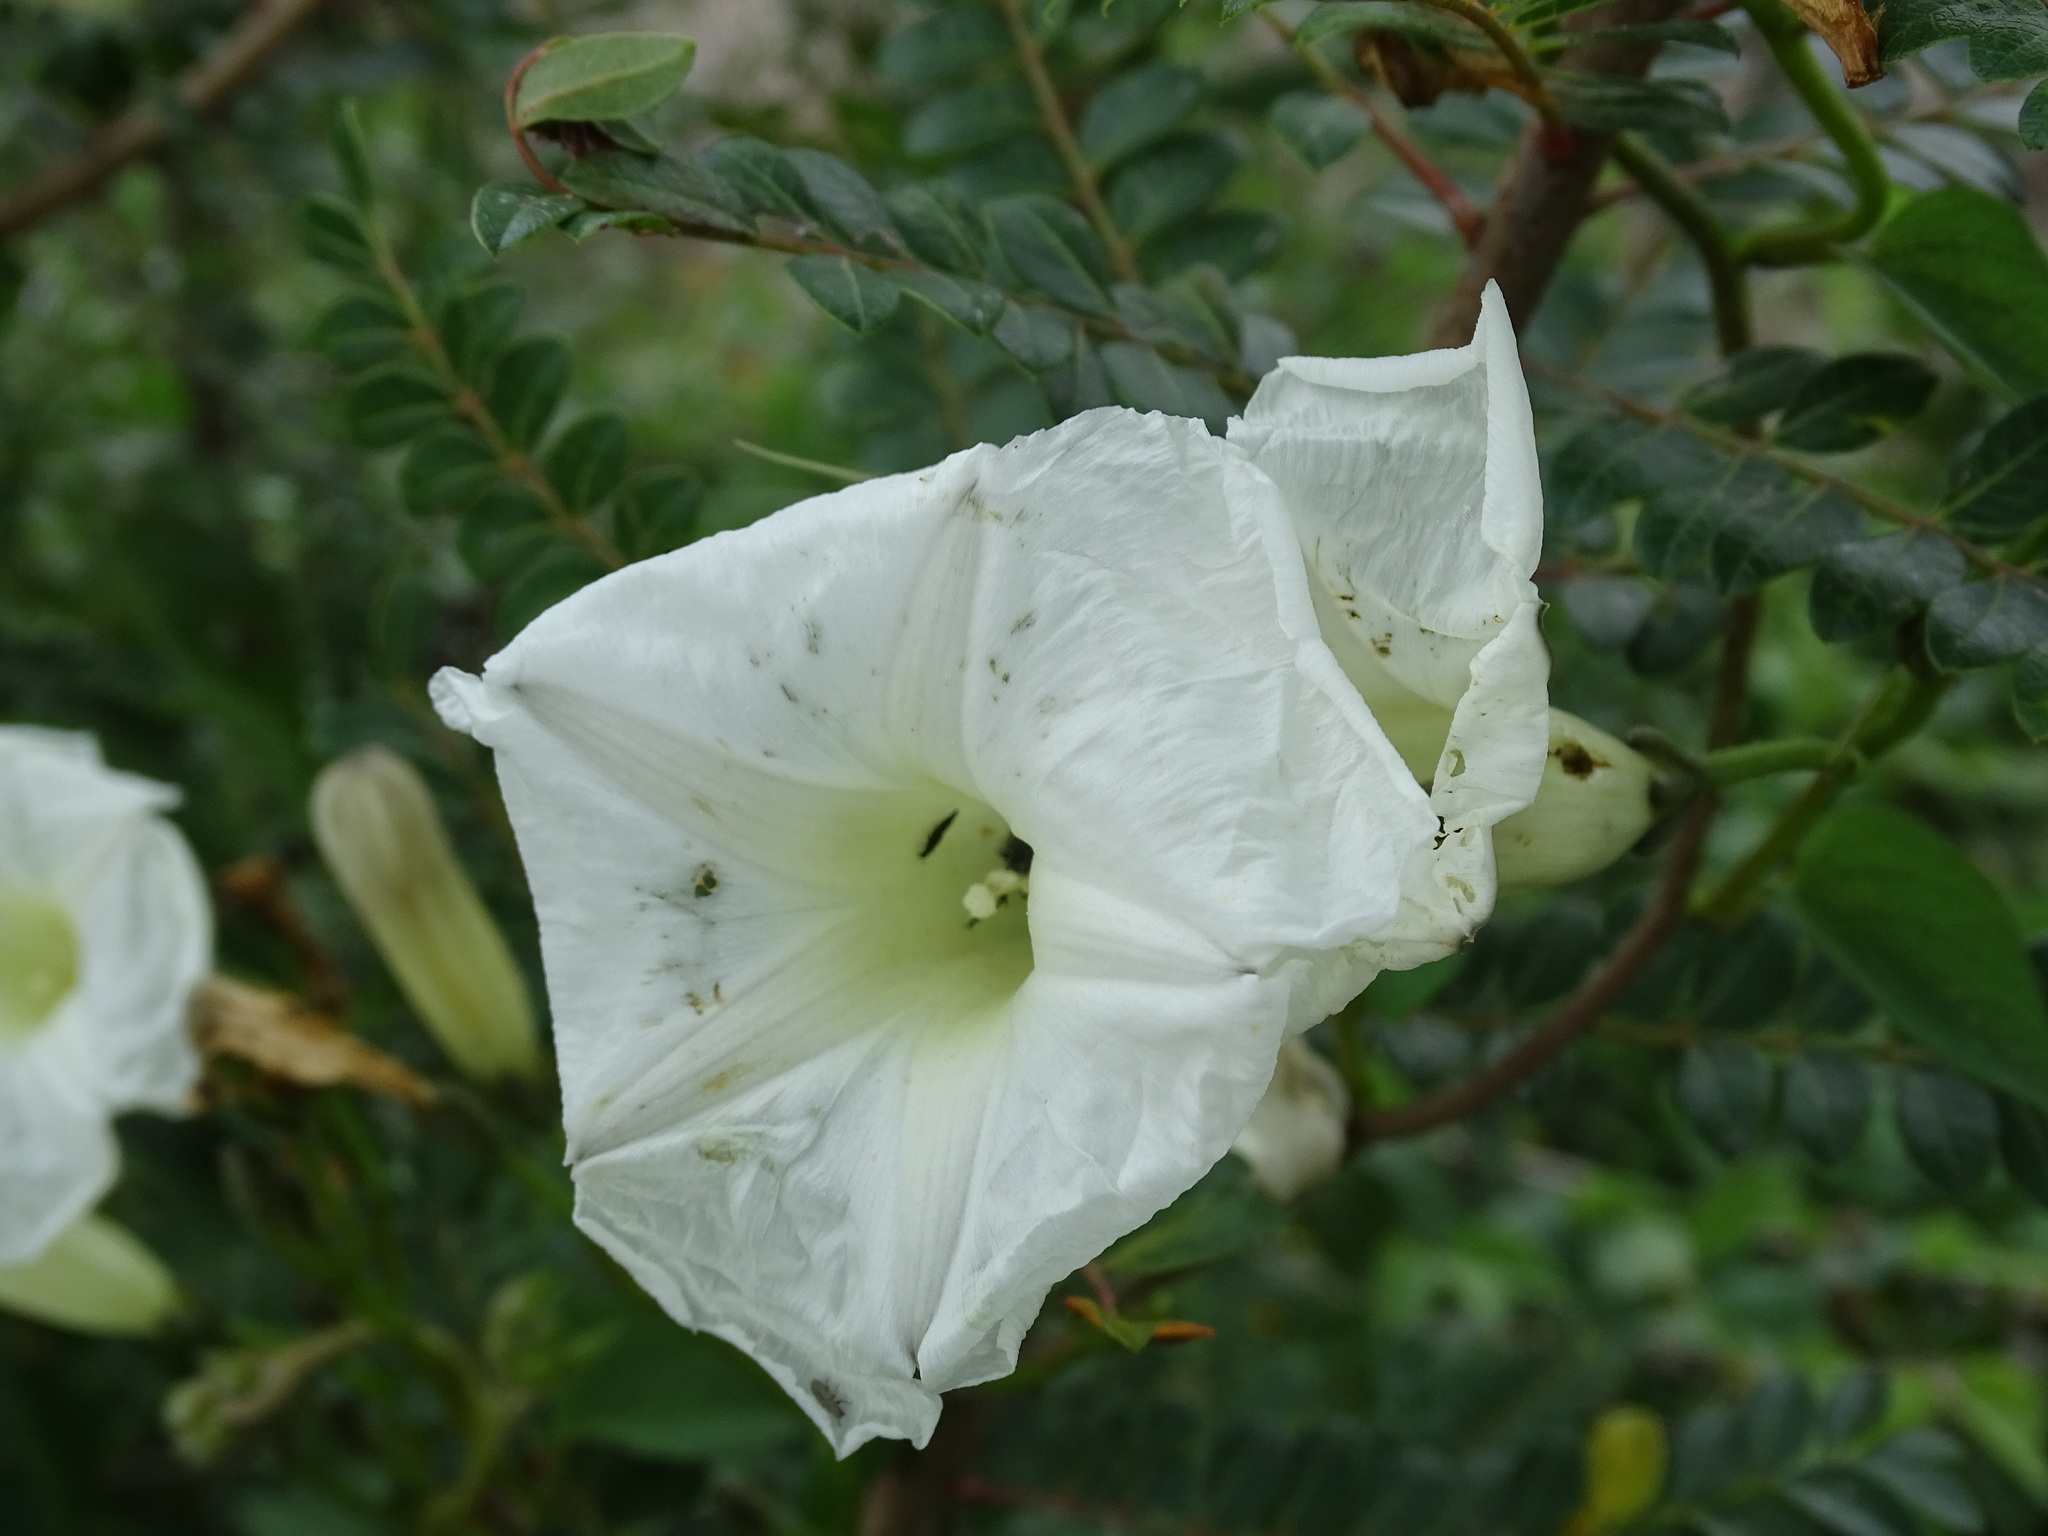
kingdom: Plantae
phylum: Tracheophyta
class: Magnoliopsida
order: Solanales
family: Convolvulaceae
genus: Ipomoea
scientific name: Ipomoea proxima
